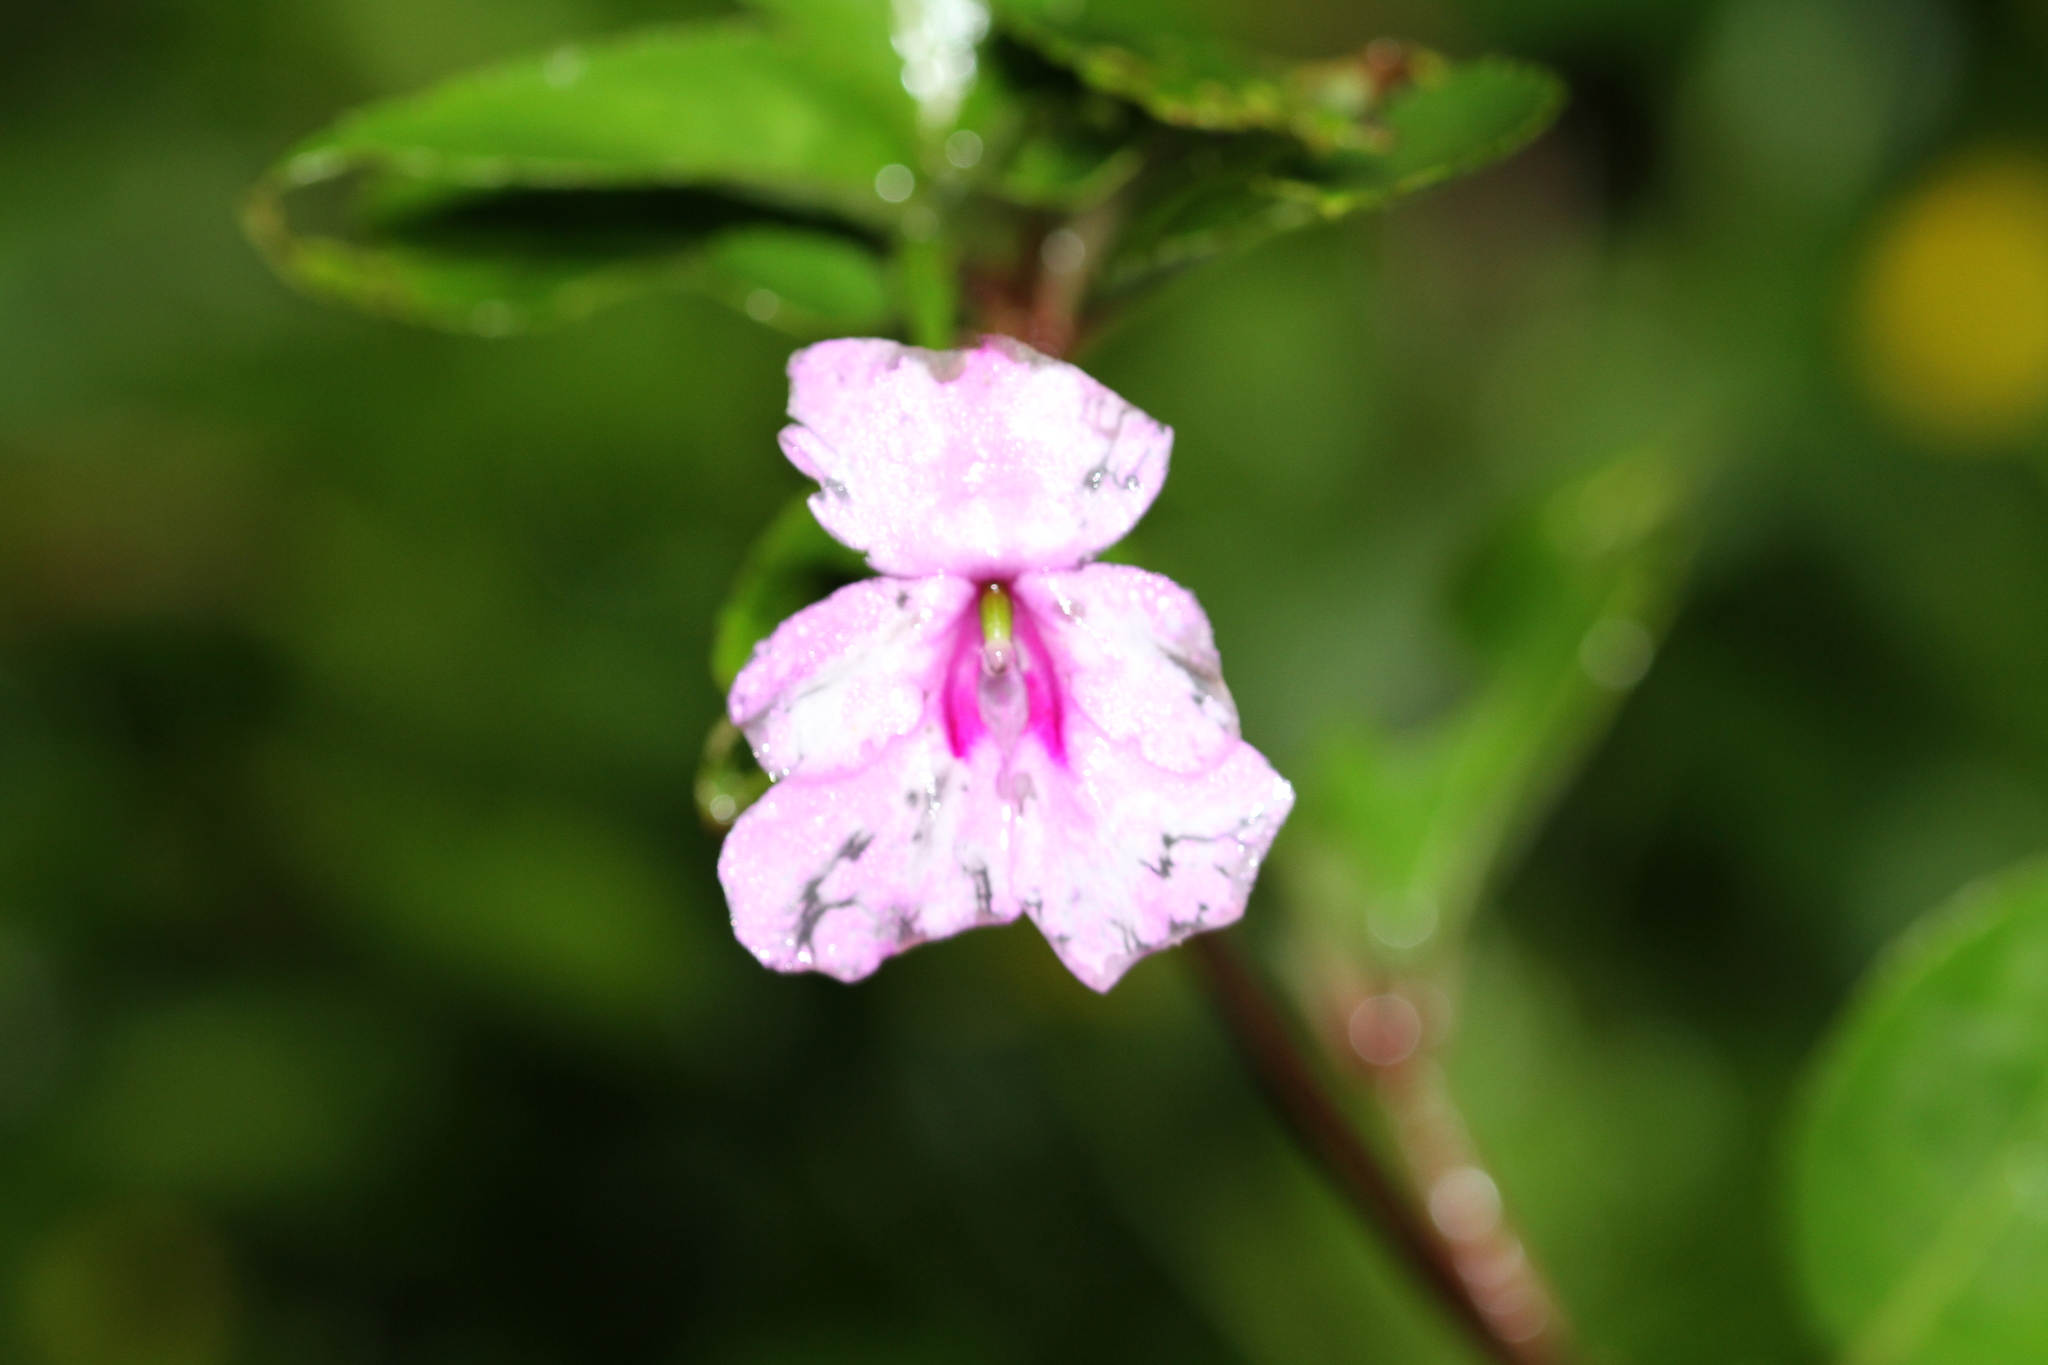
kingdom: Plantae
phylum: Tracheophyta
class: Magnoliopsida
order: Ericales
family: Balsaminaceae
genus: Impatiens
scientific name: Impatiens platypetala
